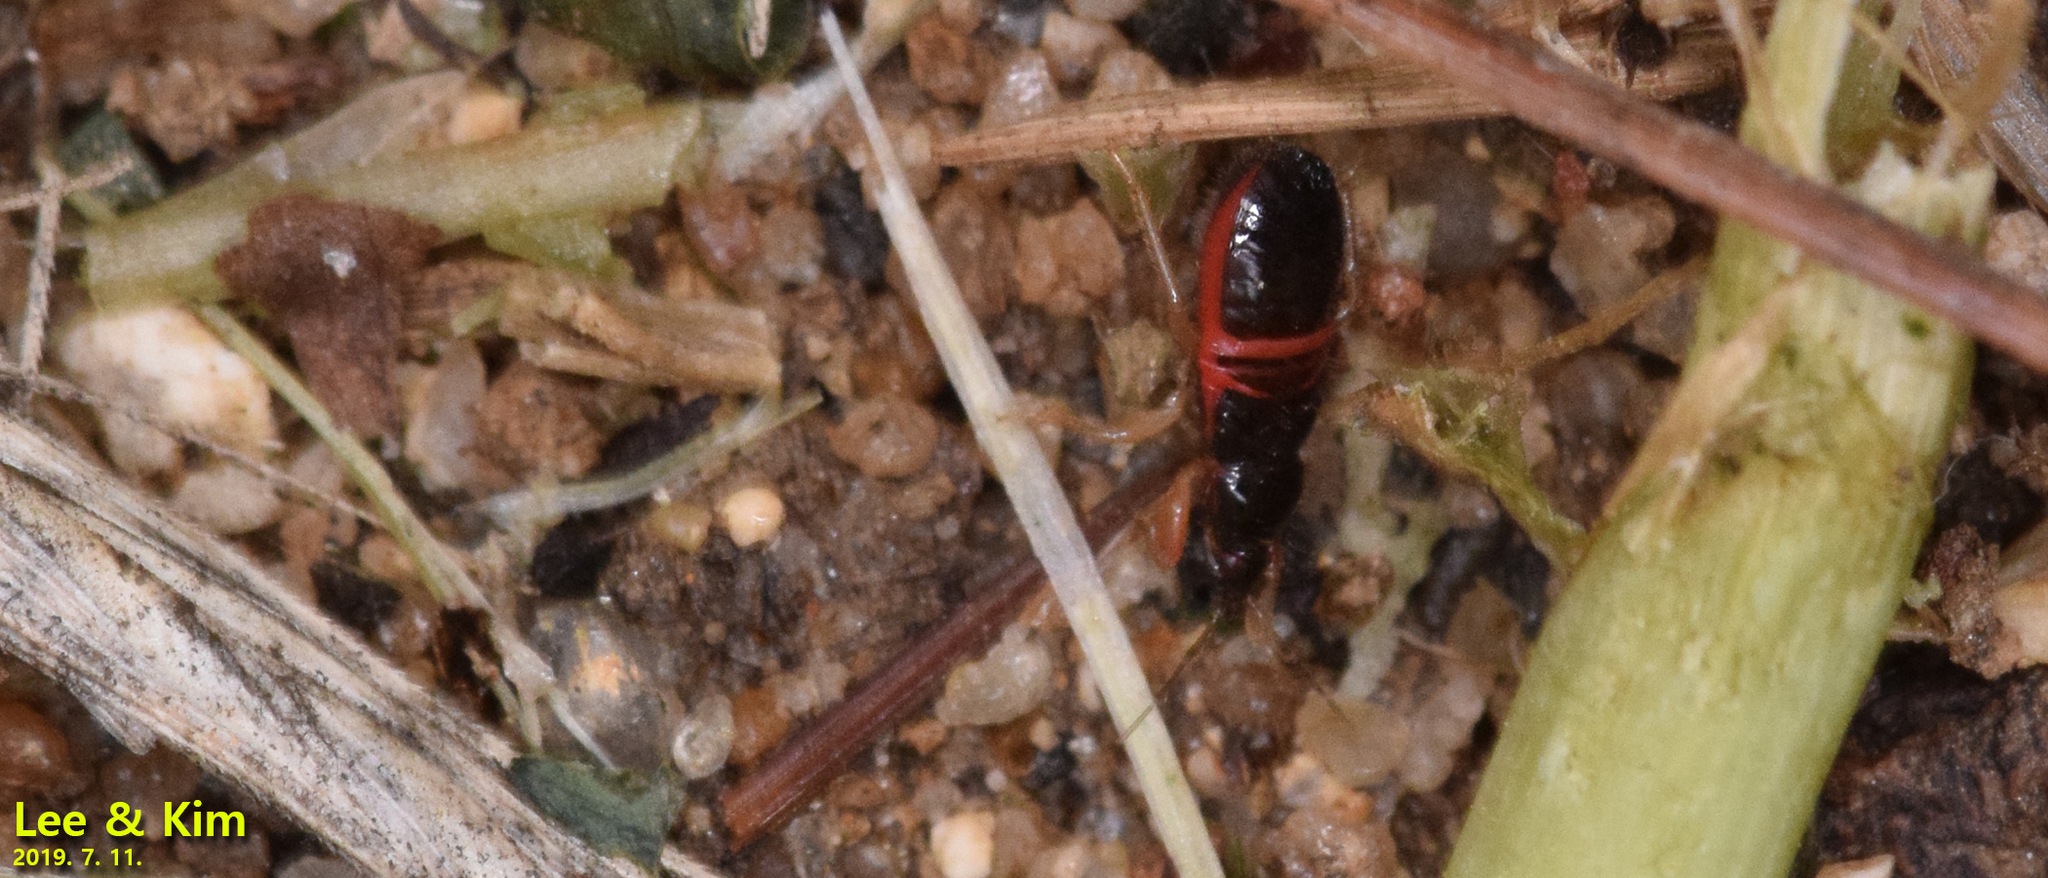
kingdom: Animalia
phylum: Arthropoda
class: Insecta
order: Hemiptera
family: Nabidae
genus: Prostemma
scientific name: Prostemma
